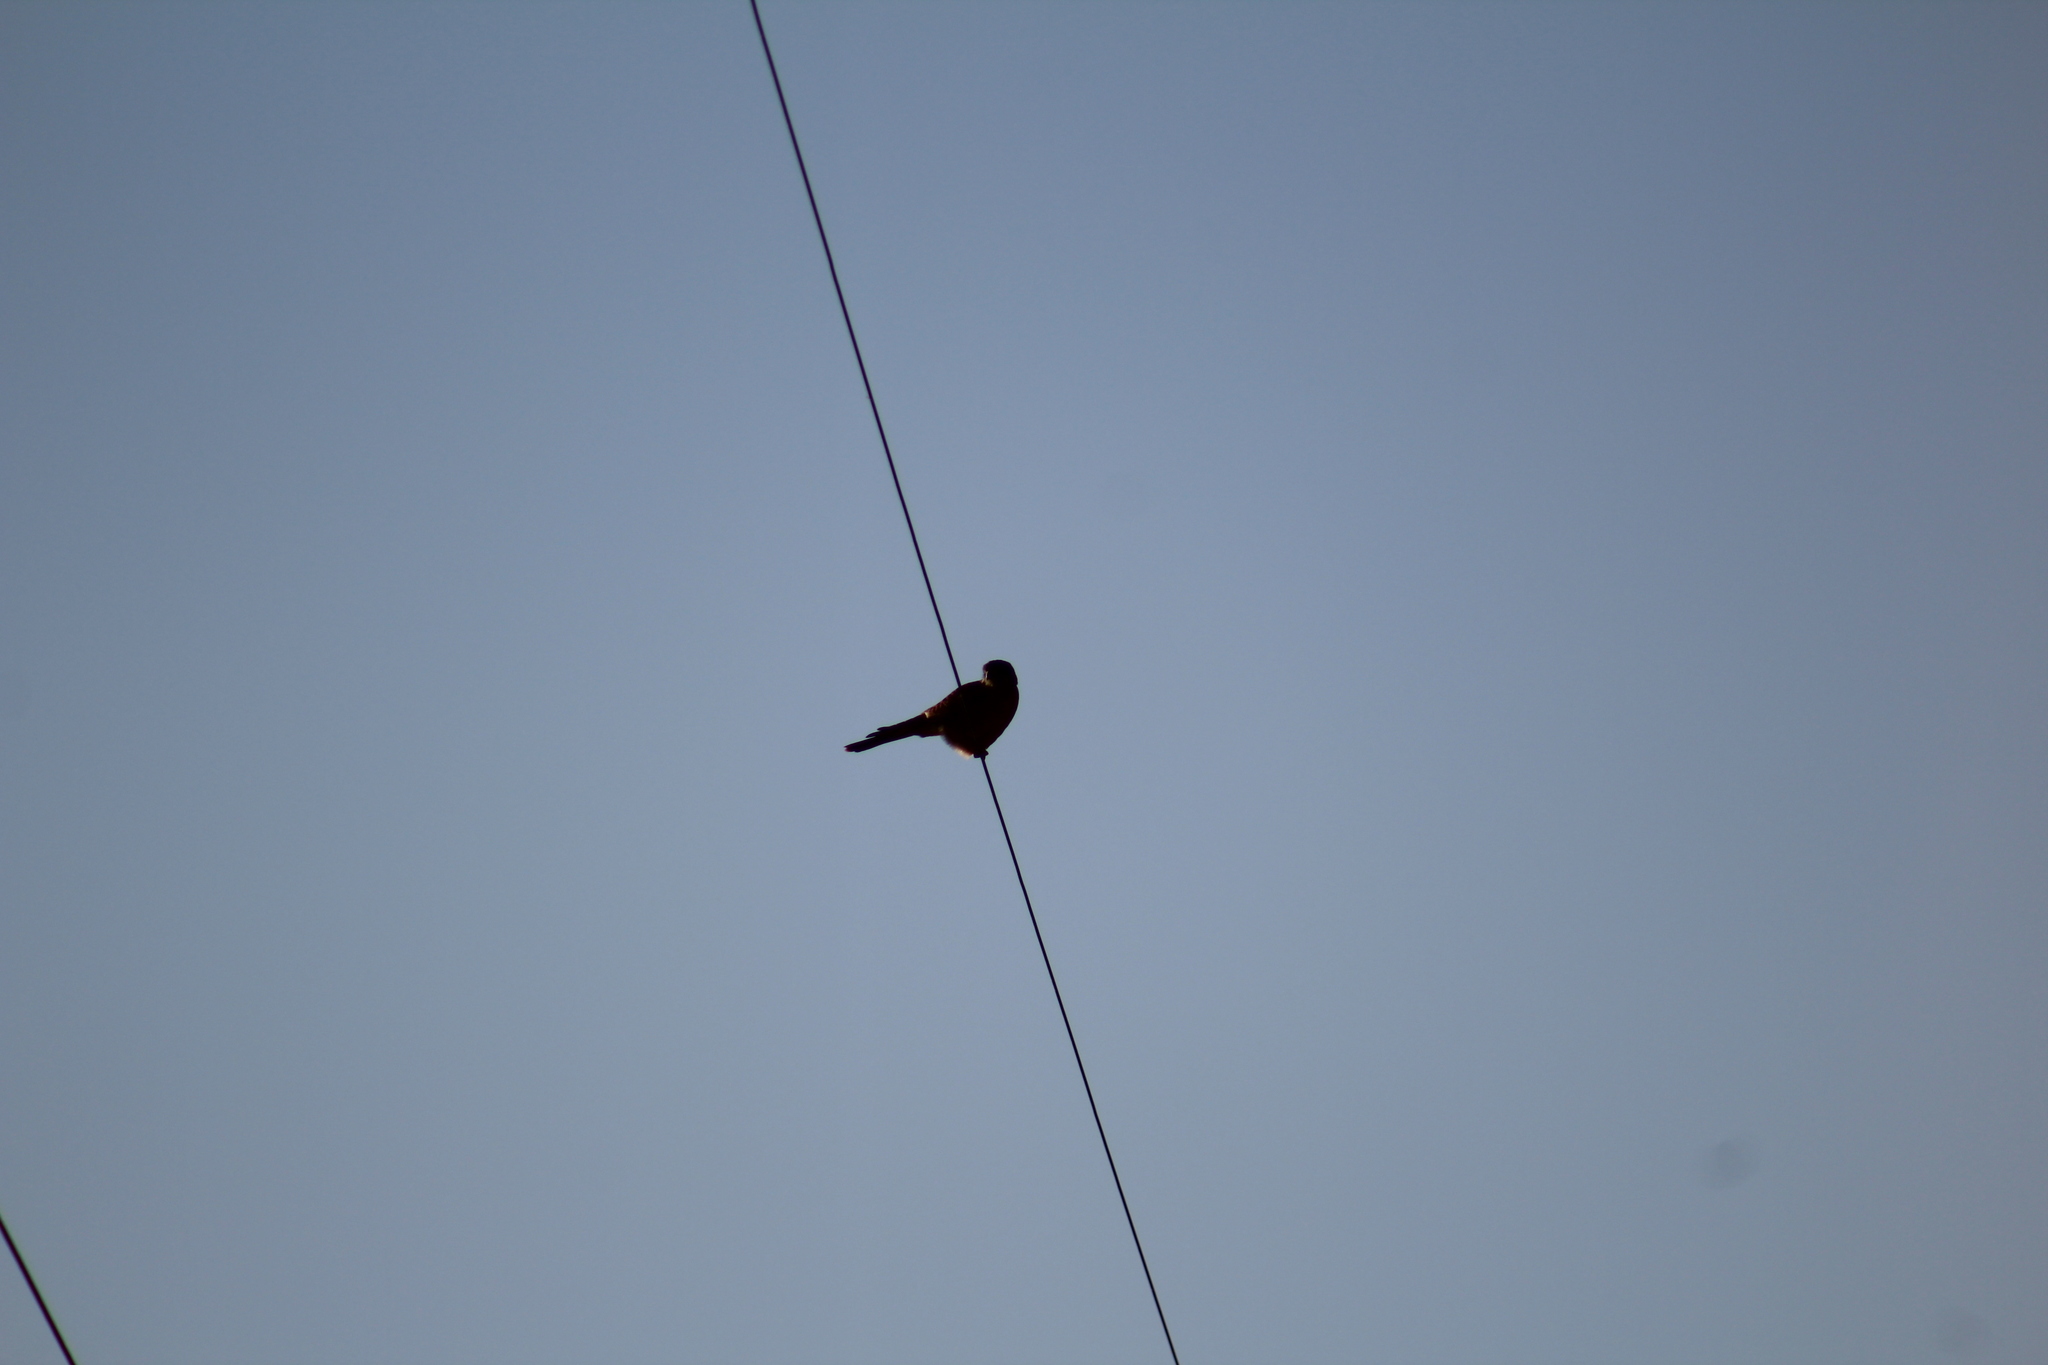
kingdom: Animalia
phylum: Chordata
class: Aves
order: Falconiformes
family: Falconidae
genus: Falco
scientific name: Falco sparverius
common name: American kestrel
